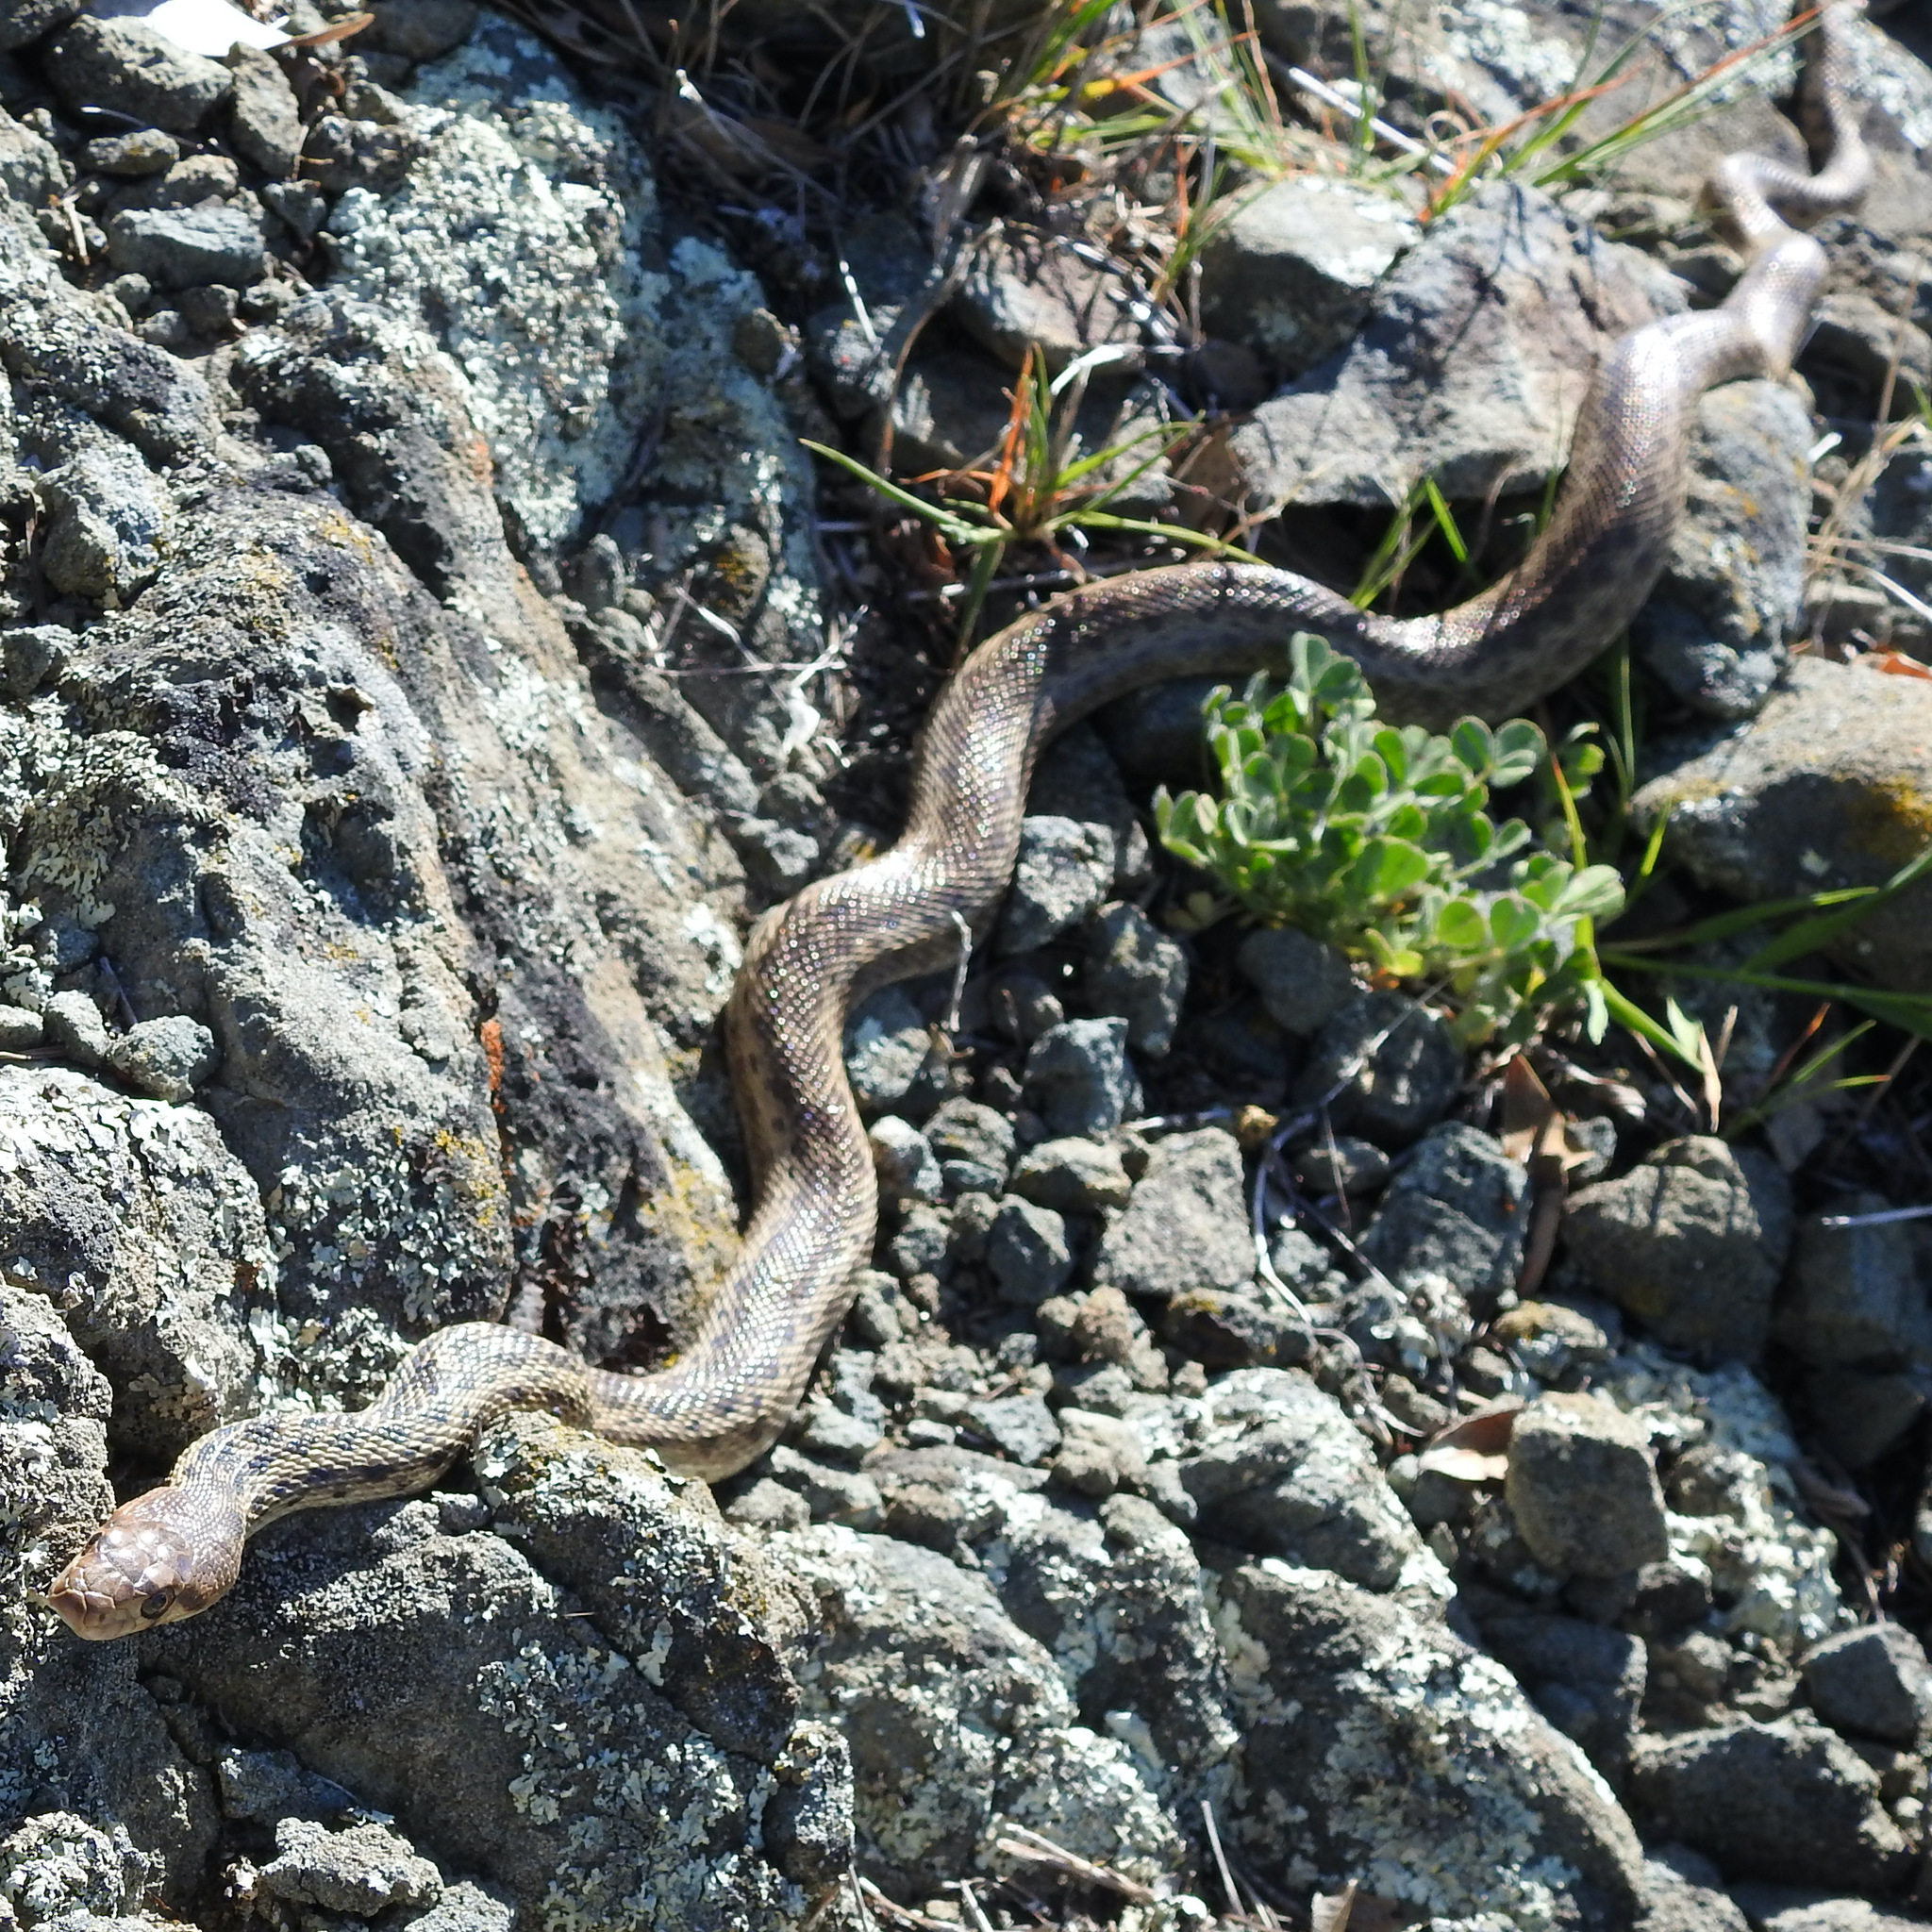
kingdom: Animalia
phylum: Chordata
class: Squamata
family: Colubridae
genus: Pituophis
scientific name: Pituophis catenifer
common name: Gopher snake
